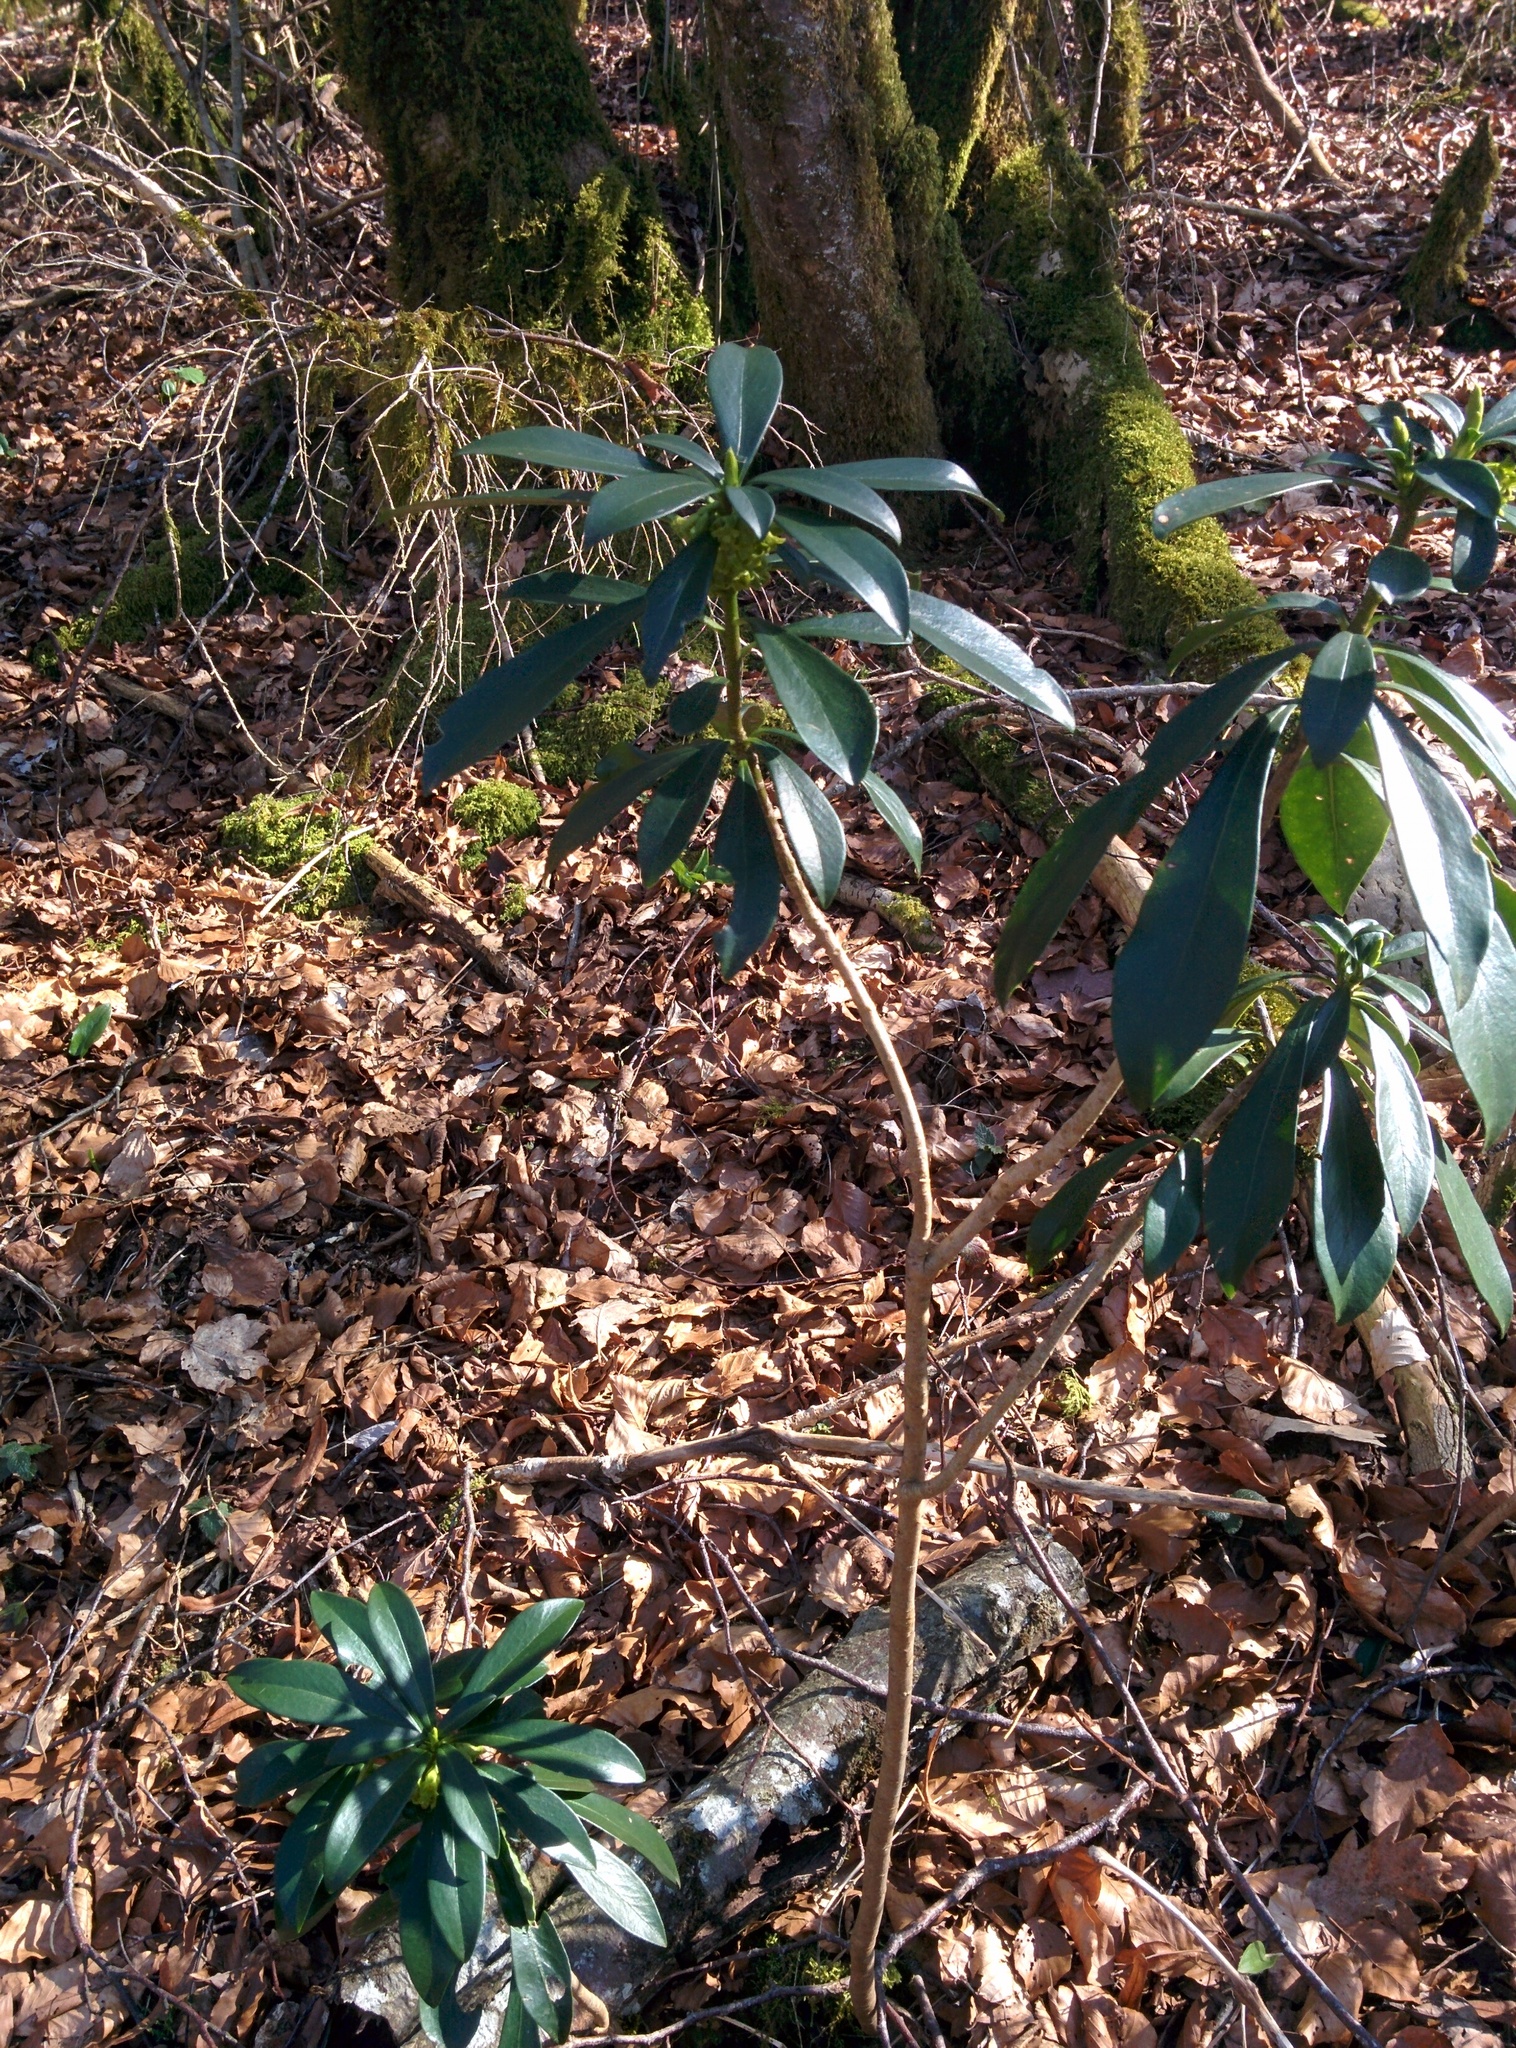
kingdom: Plantae
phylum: Tracheophyta
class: Magnoliopsida
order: Malvales
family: Thymelaeaceae
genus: Daphne
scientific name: Daphne laureola
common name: Spurge-laurel
